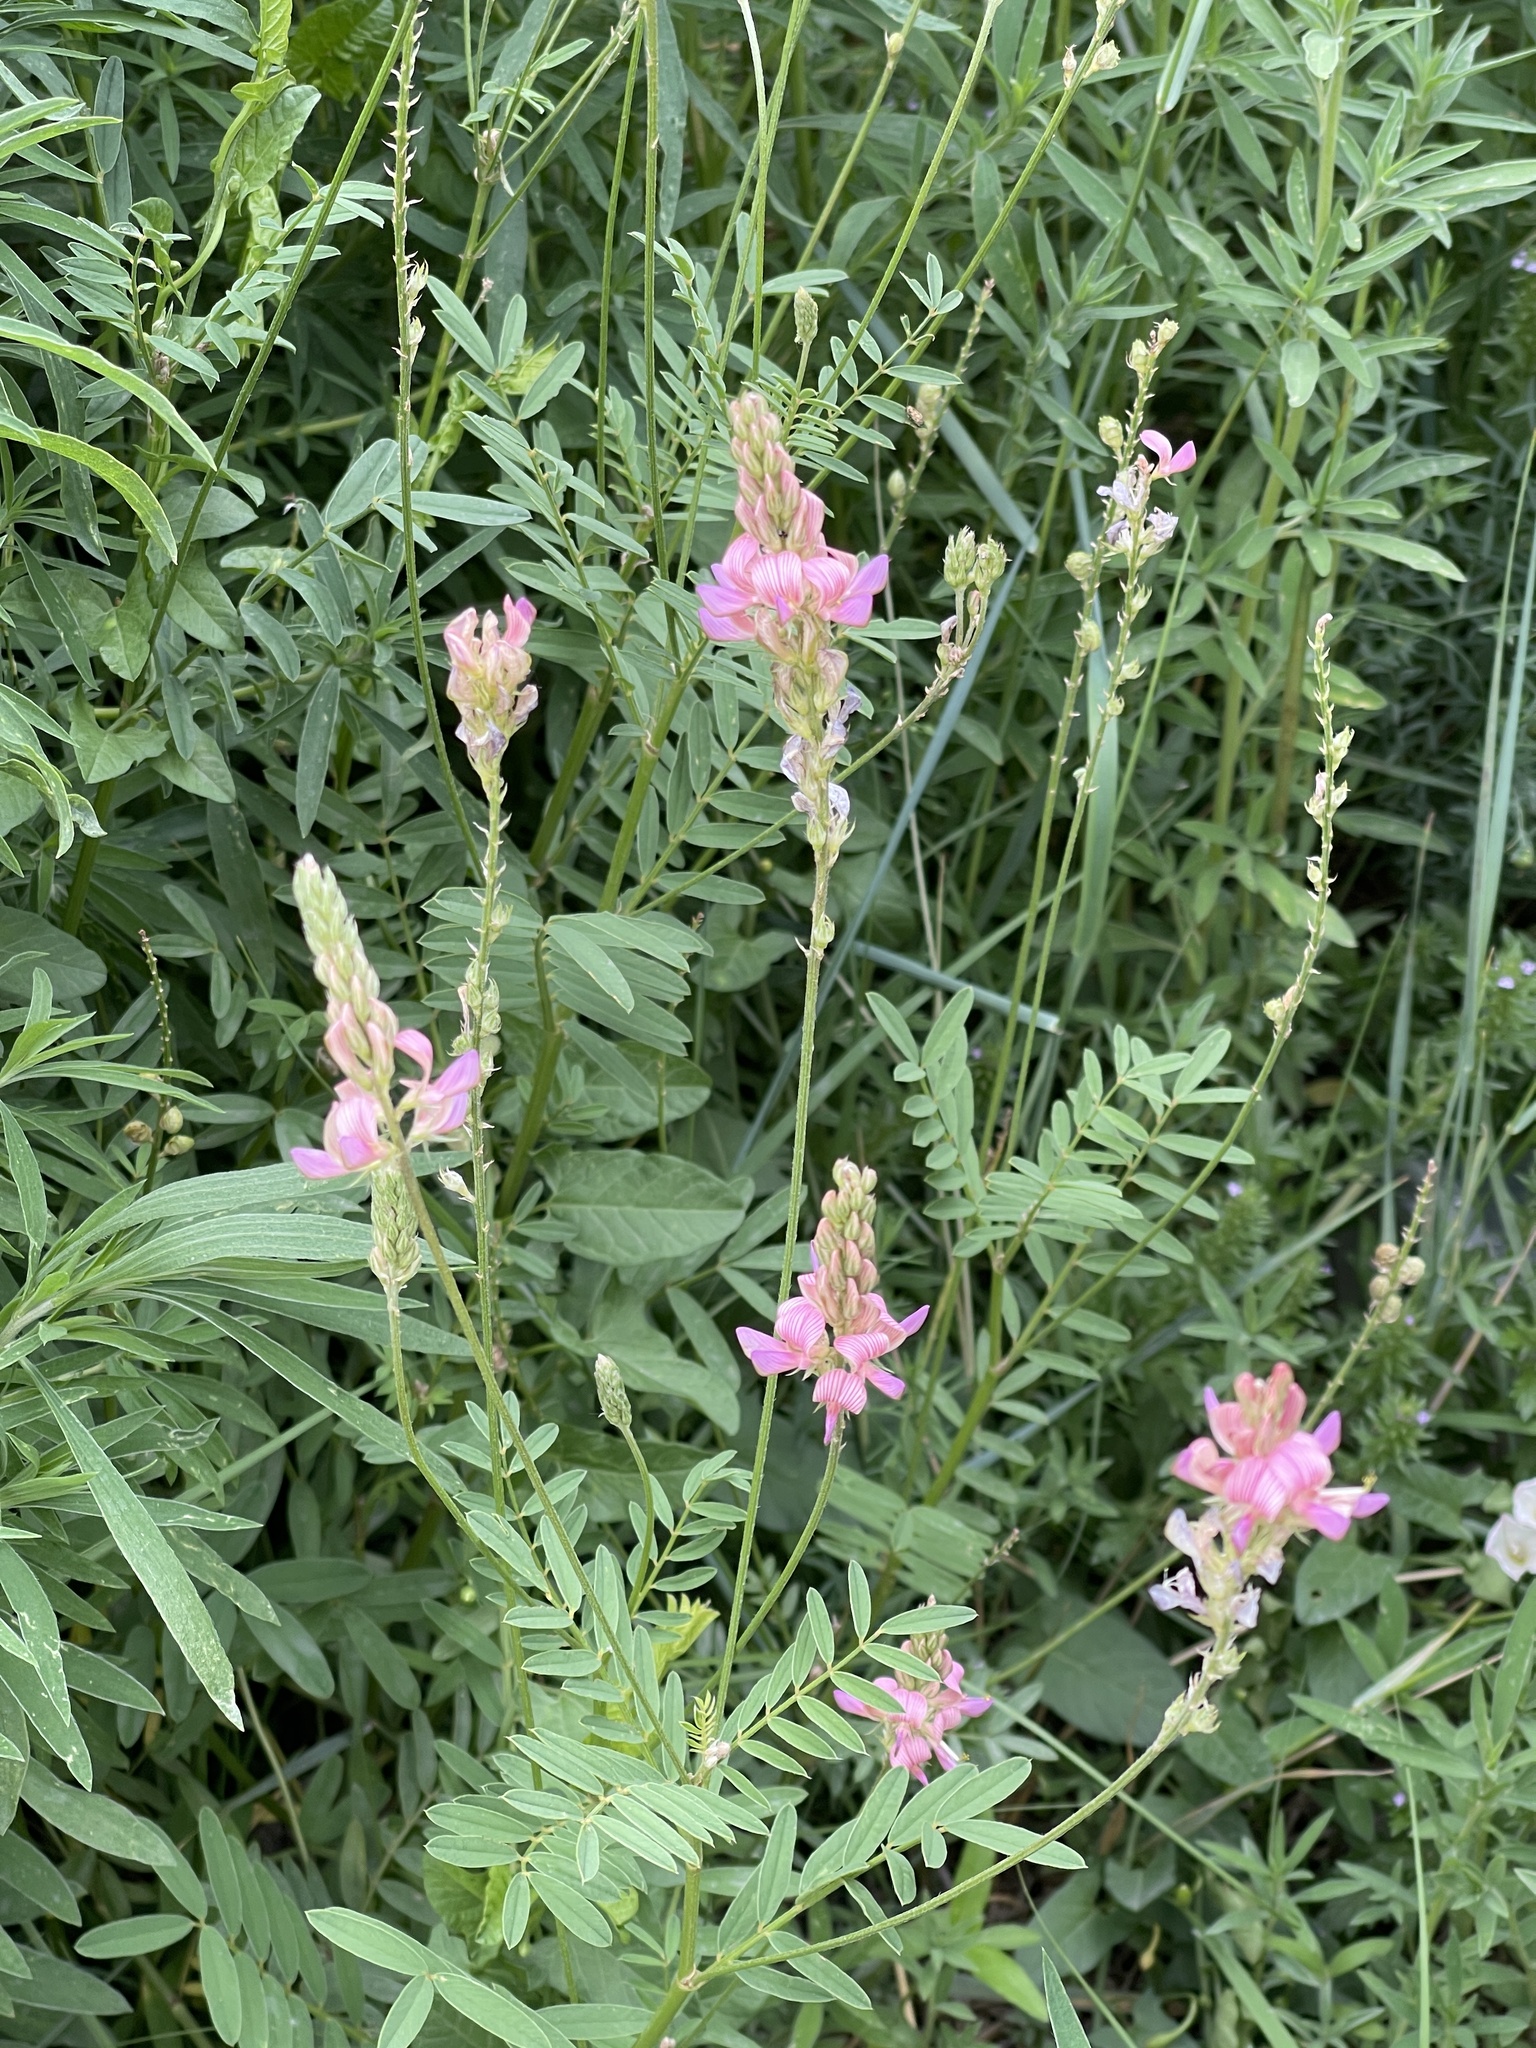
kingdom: Plantae
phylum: Tracheophyta
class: Magnoliopsida
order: Fabales
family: Fabaceae
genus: Onobrychis
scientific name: Onobrychis viciifolia
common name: Sainfoin
